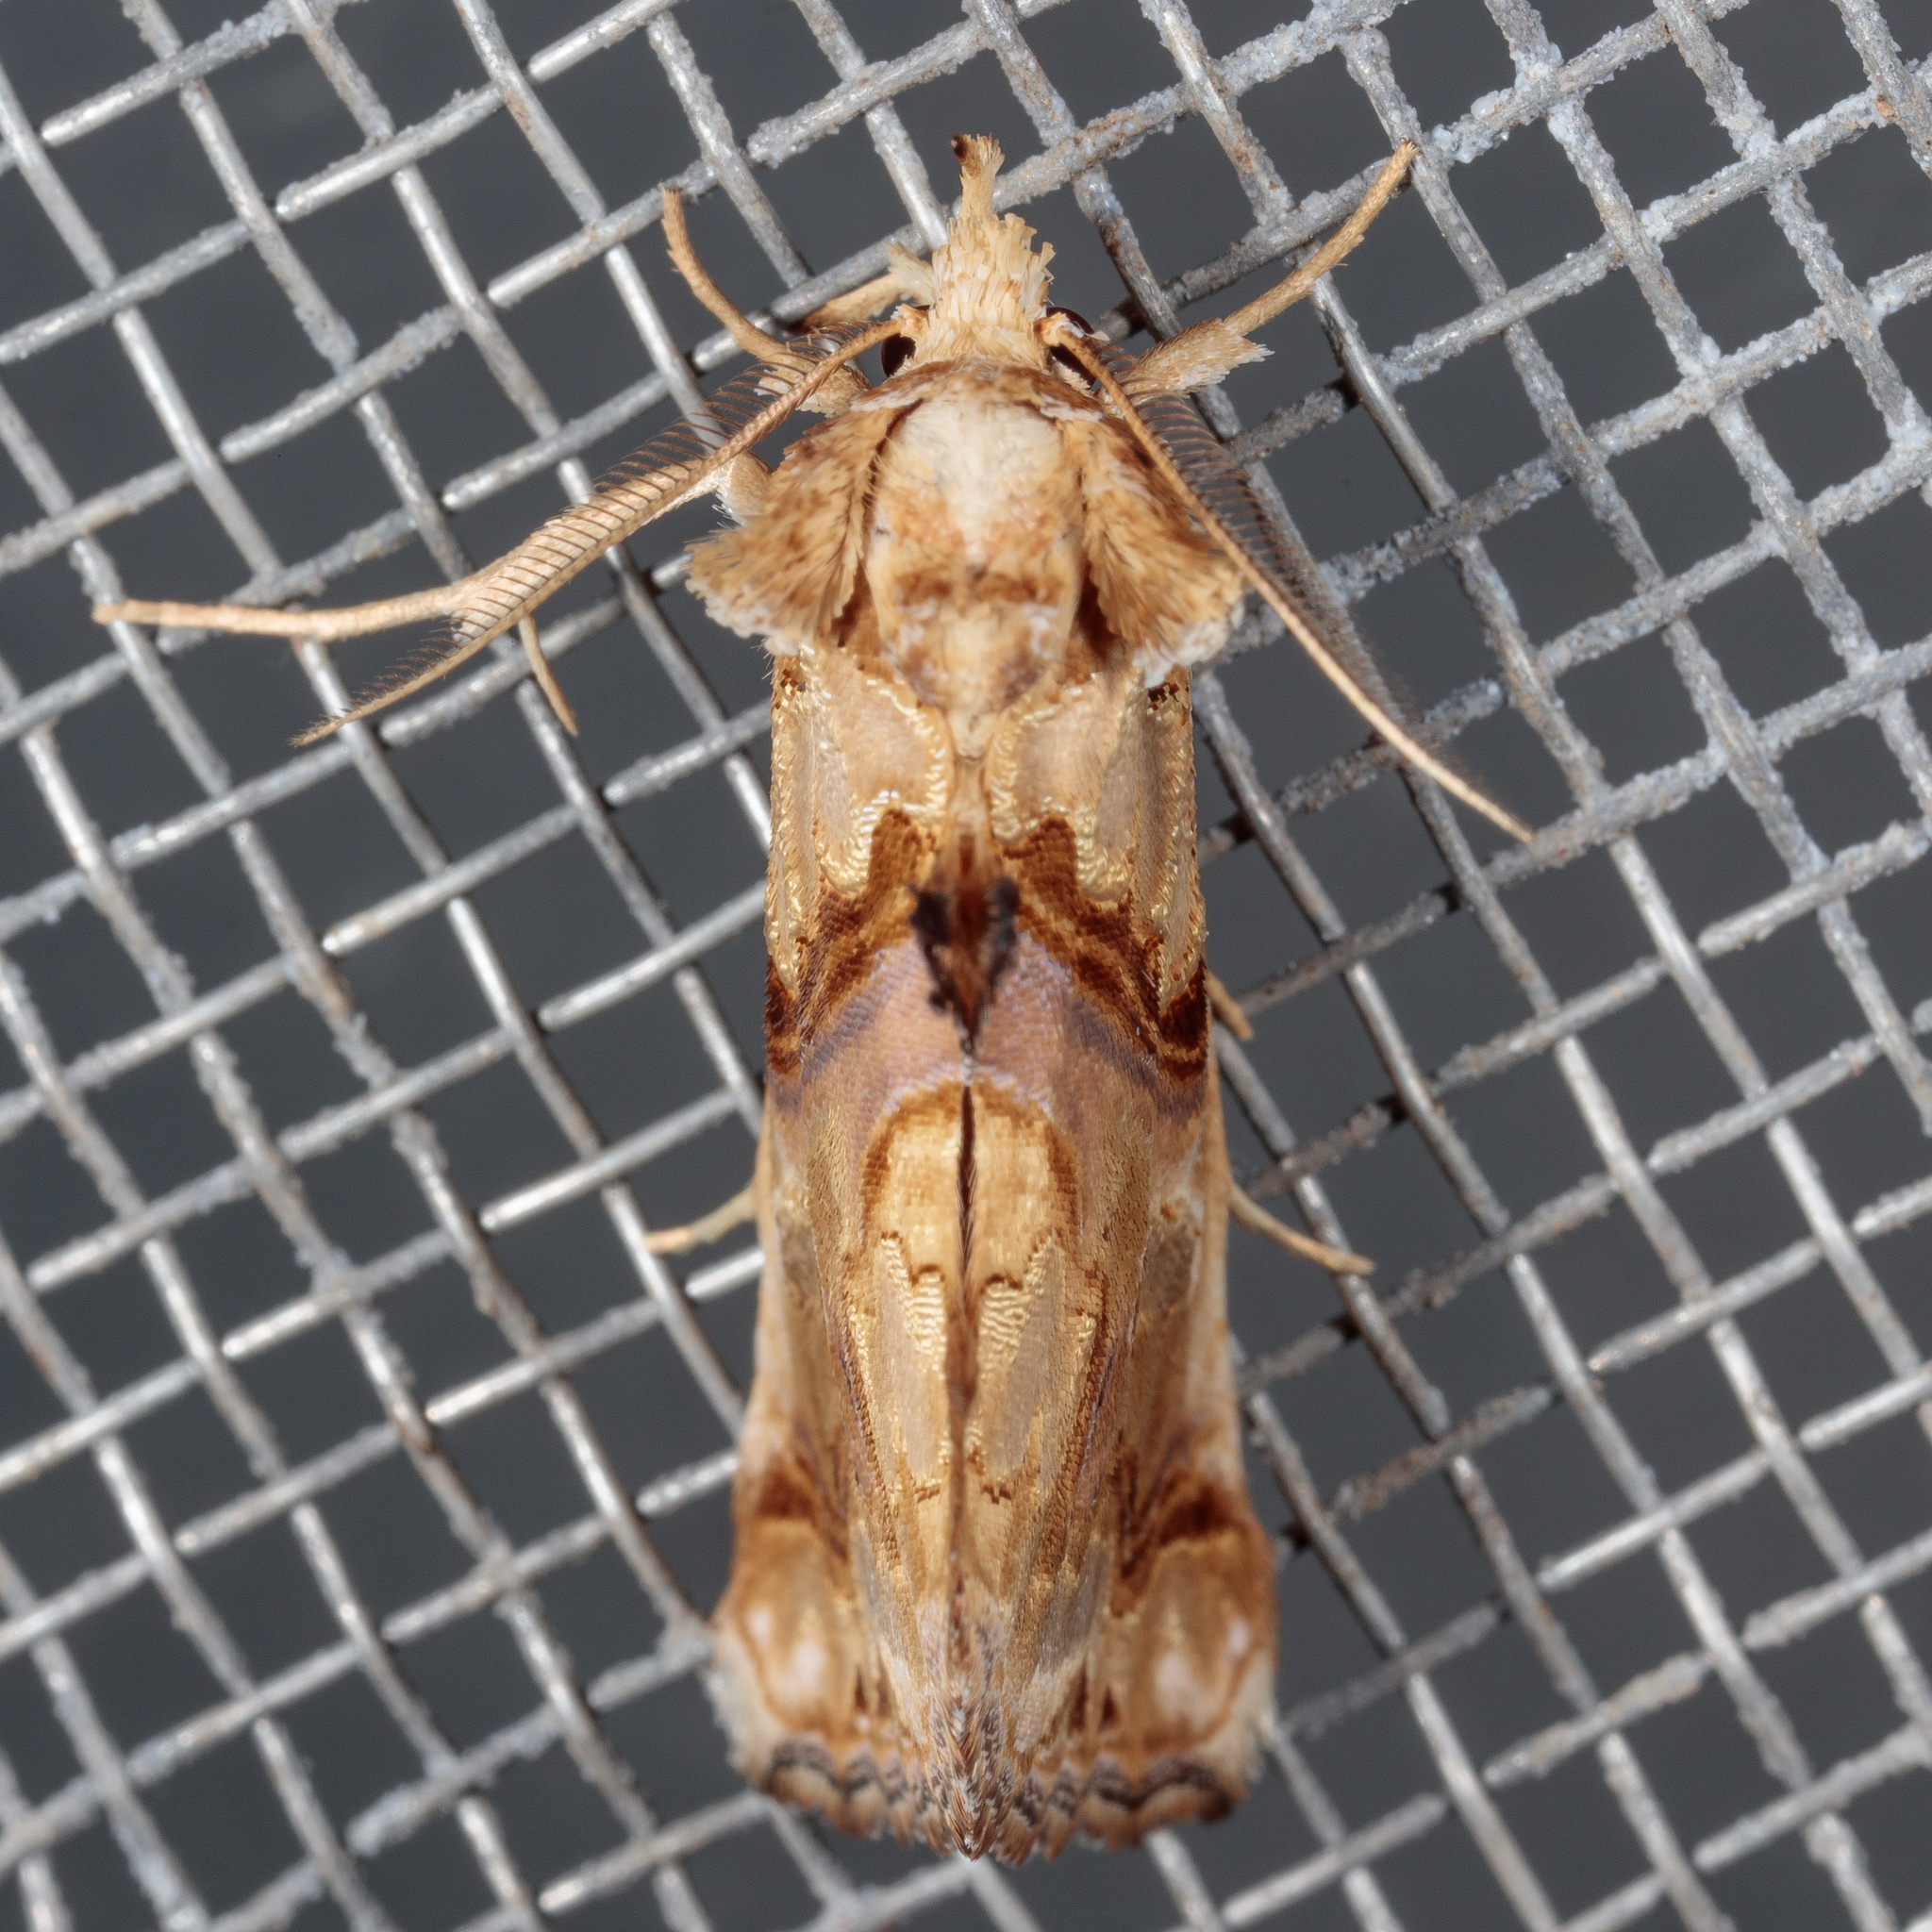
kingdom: Animalia
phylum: Arthropoda
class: Insecta
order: Lepidoptera
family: Erebidae
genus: Plusiodonta
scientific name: Plusiodonta compressipalpis
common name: Moonseed moth
